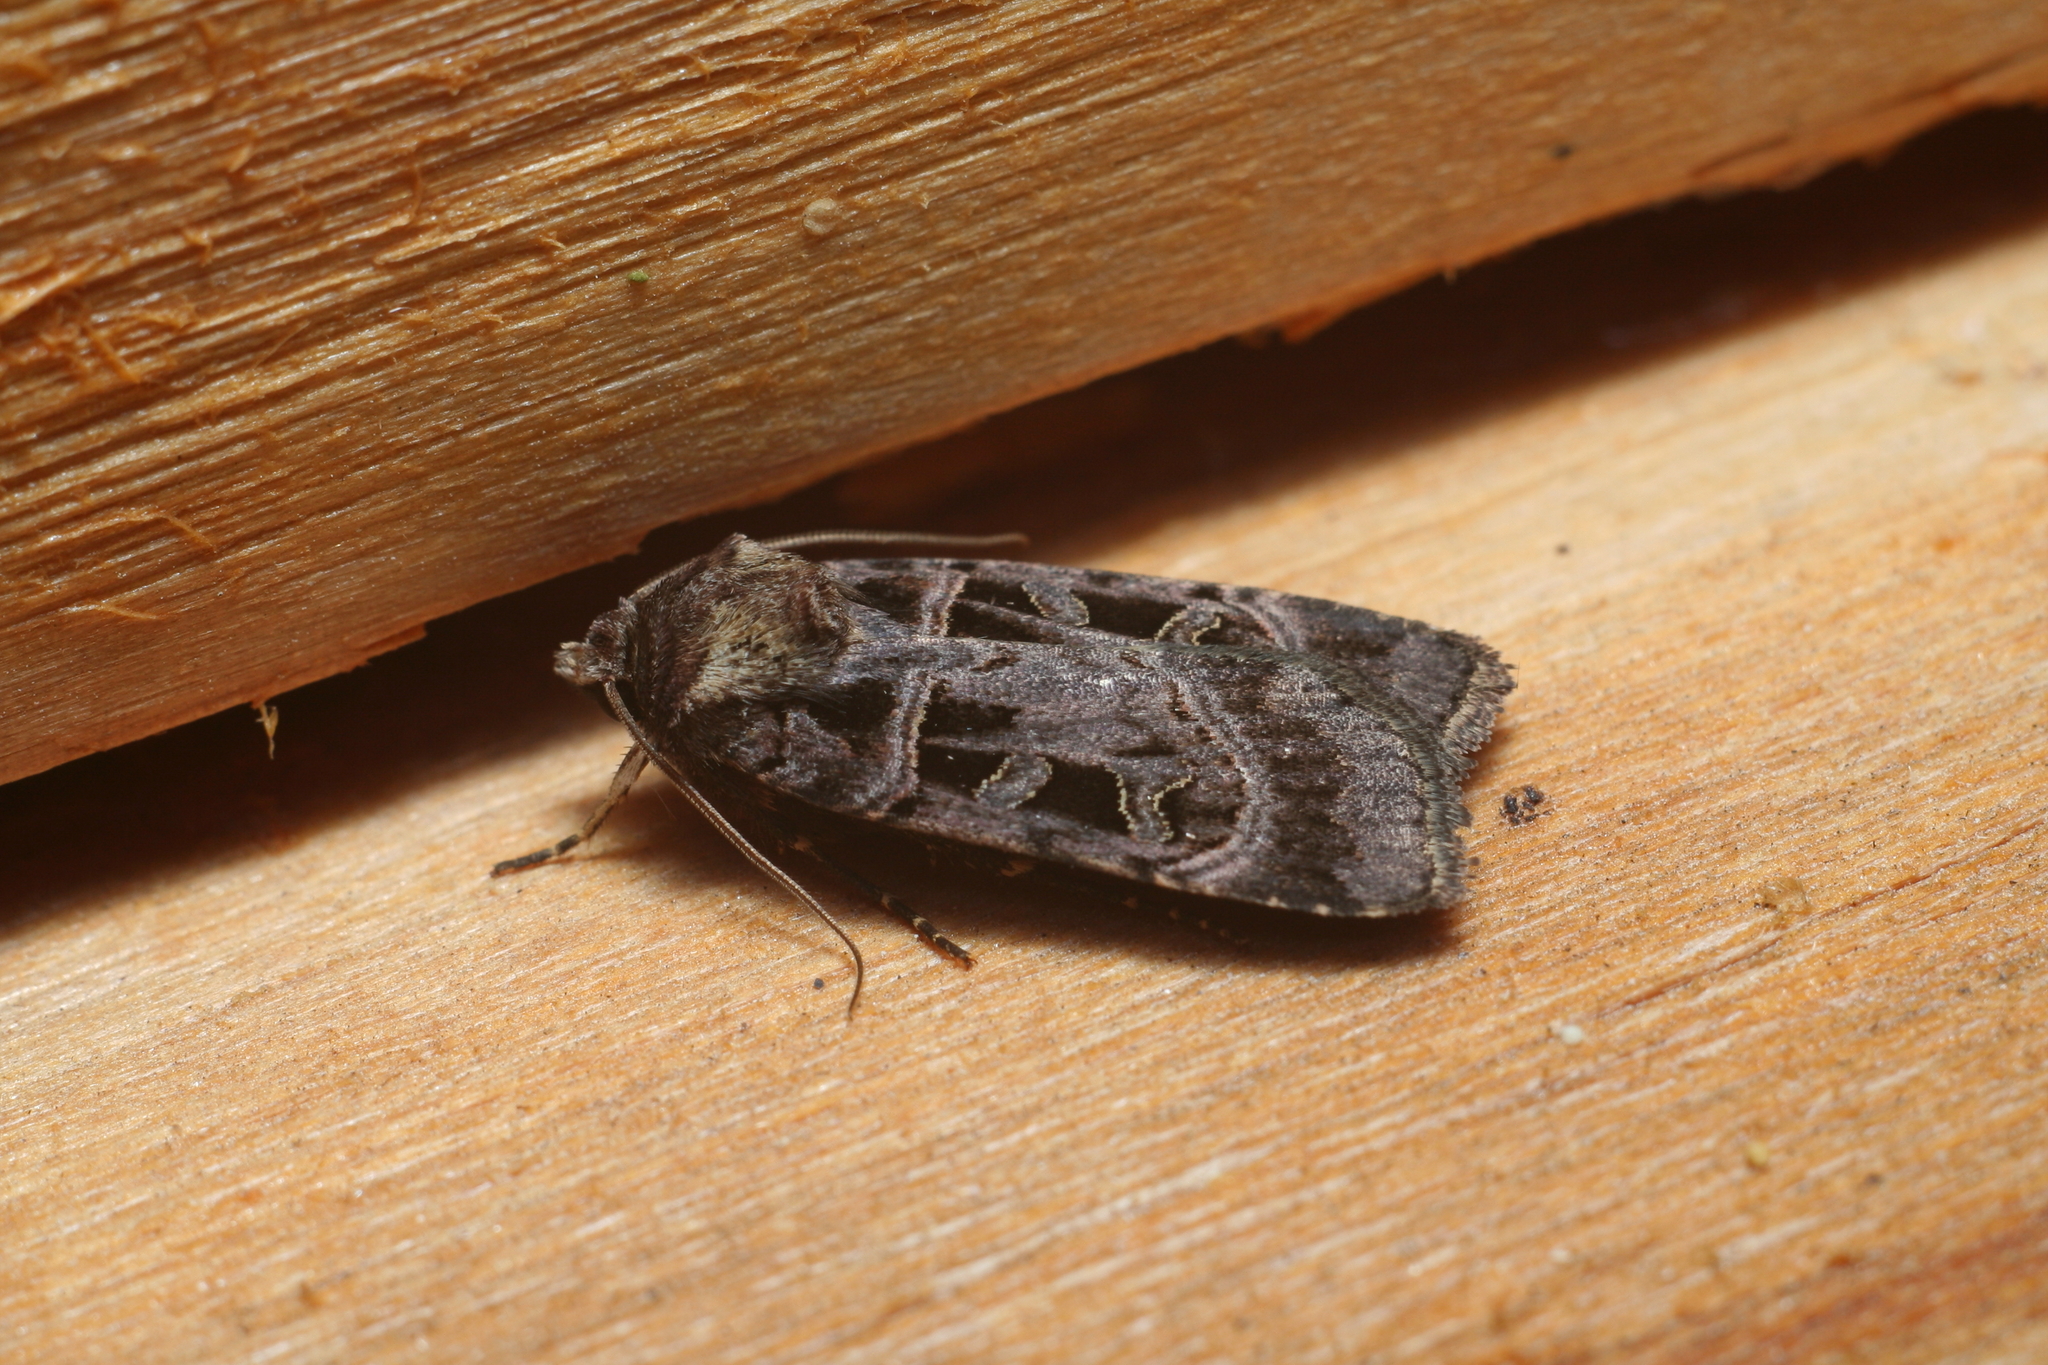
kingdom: Animalia
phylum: Arthropoda
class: Insecta
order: Lepidoptera
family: Noctuidae
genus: Pseudohermonassa
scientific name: Pseudohermonassa melancholica
